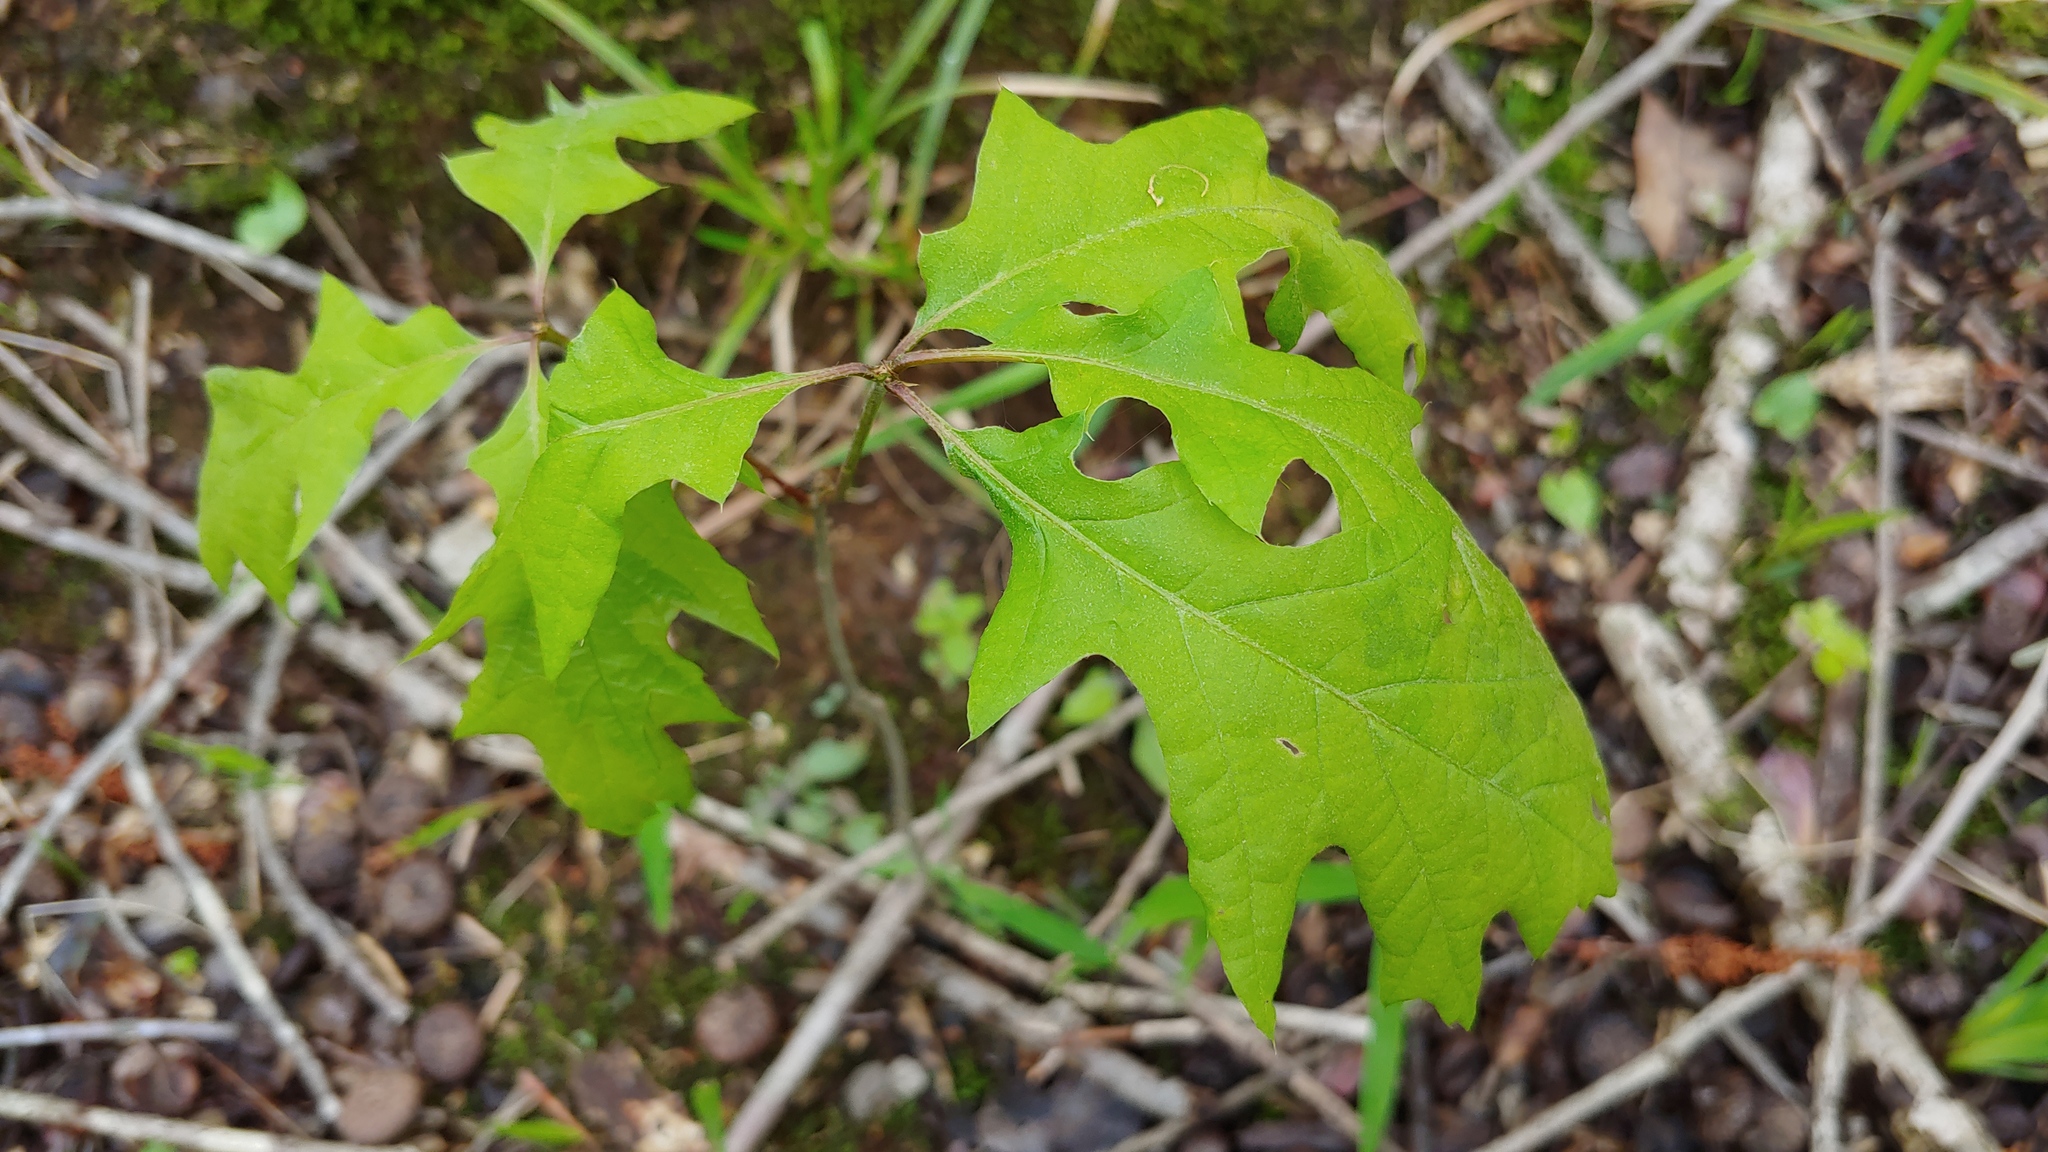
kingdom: Plantae
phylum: Tracheophyta
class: Magnoliopsida
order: Fagales
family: Fagaceae
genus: Quercus
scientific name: Quercus pagoda
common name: Cherrybark oak
